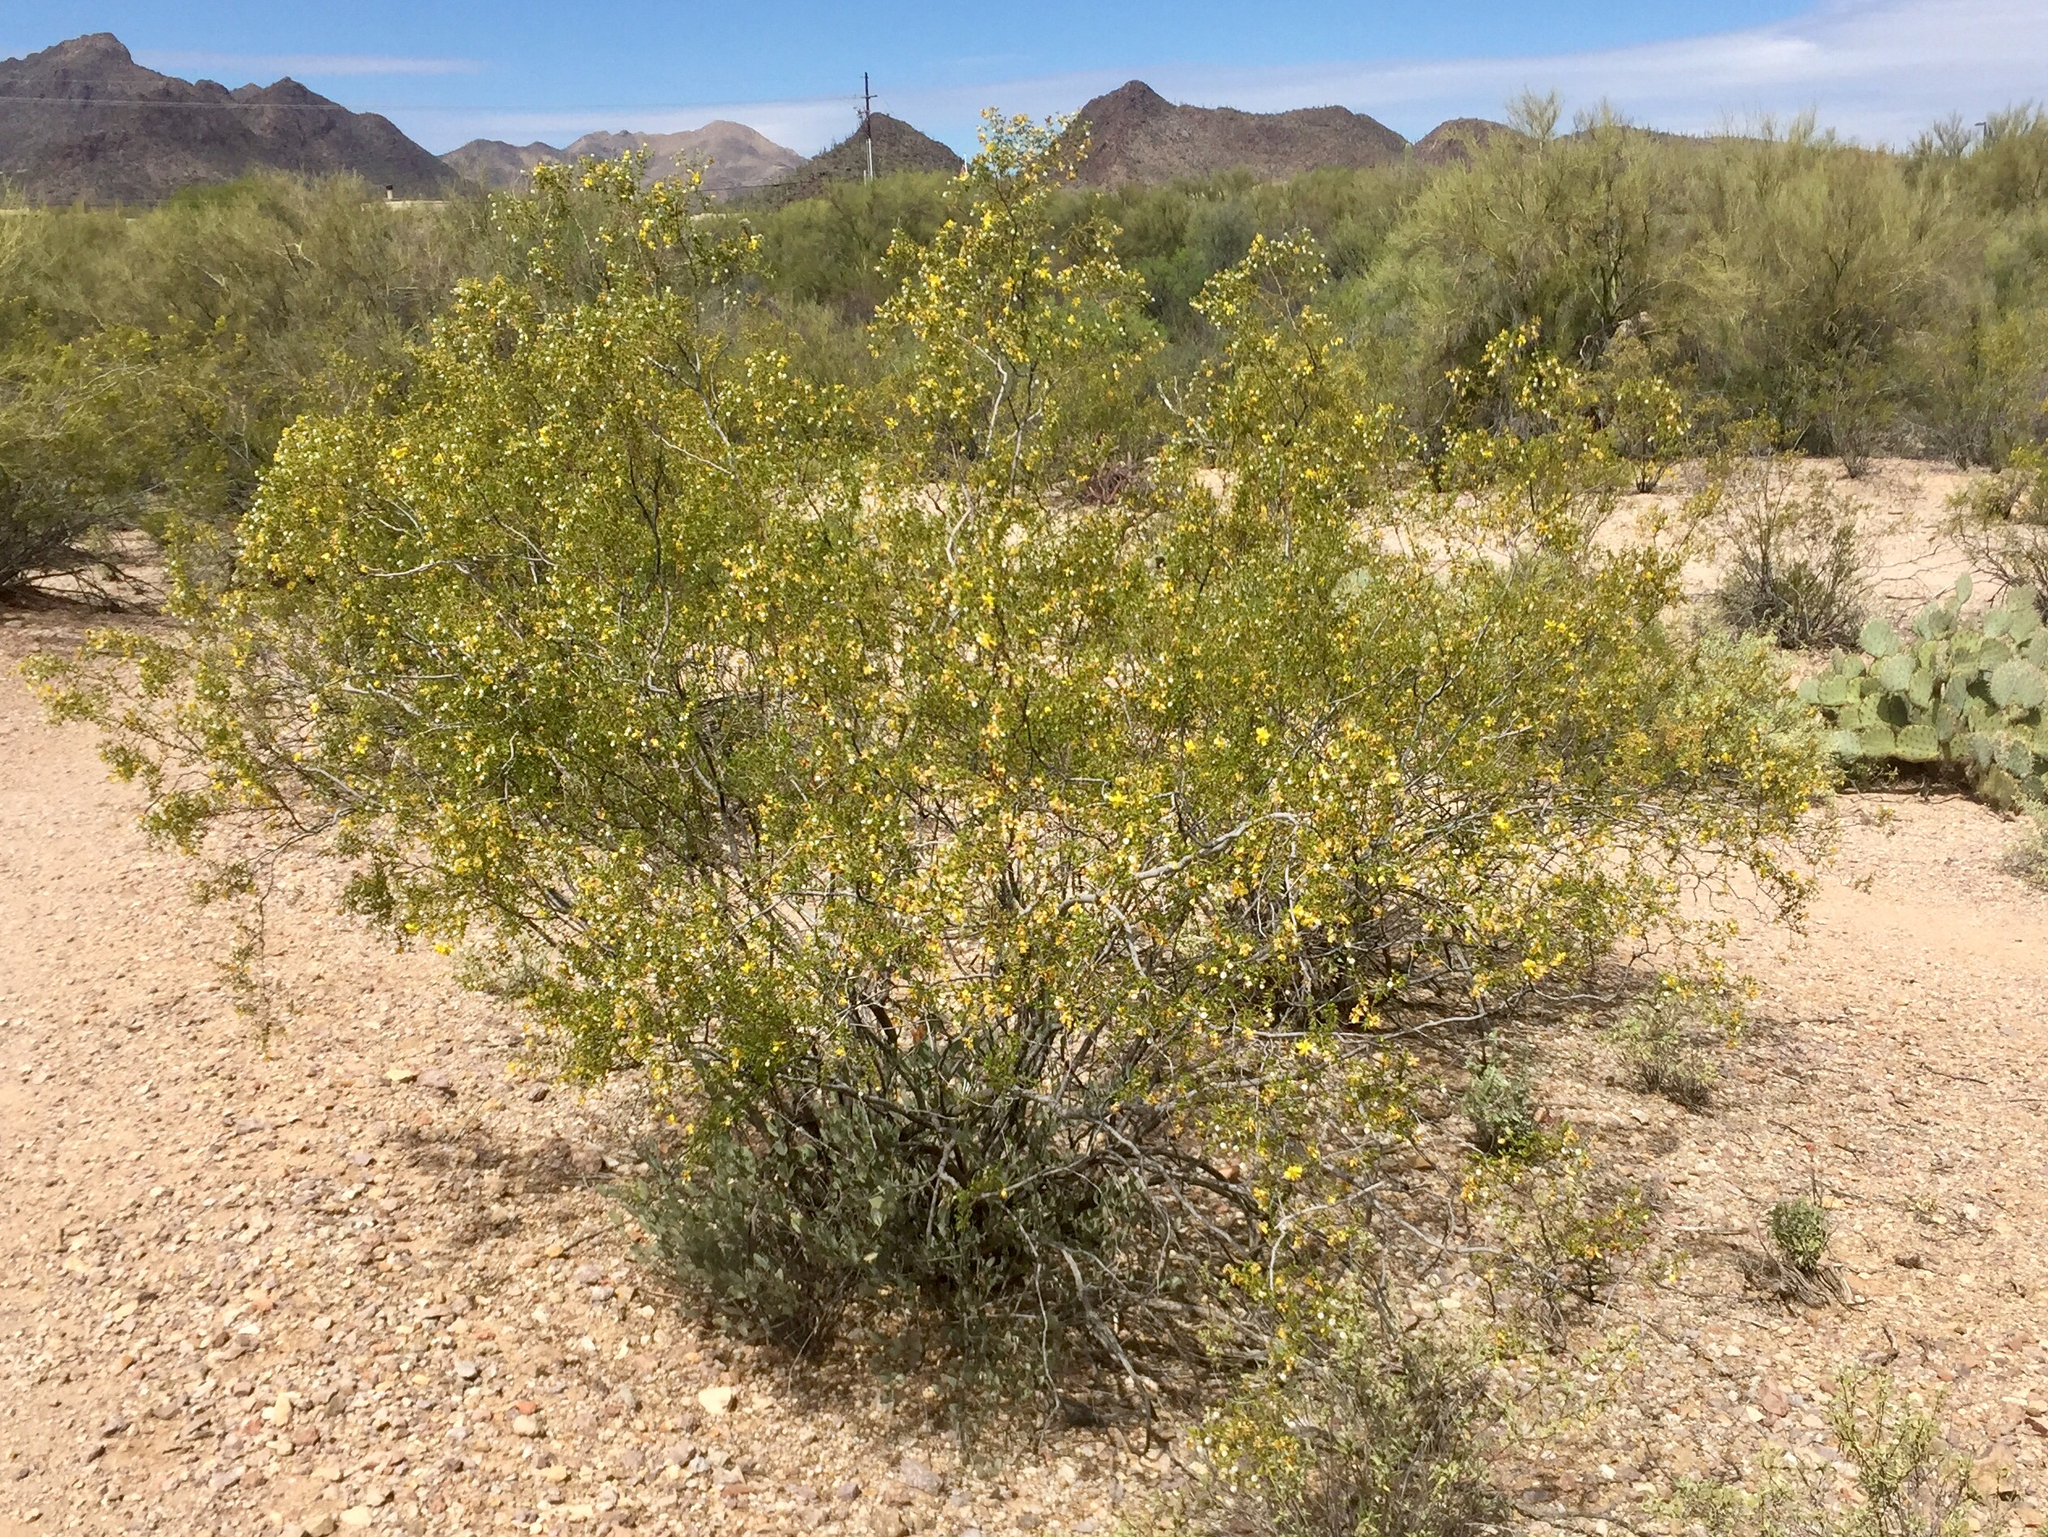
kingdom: Plantae
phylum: Tracheophyta
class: Magnoliopsida
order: Zygophyllales
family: Zygophyllaceae
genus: Larrea
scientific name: Larrea tridentata
